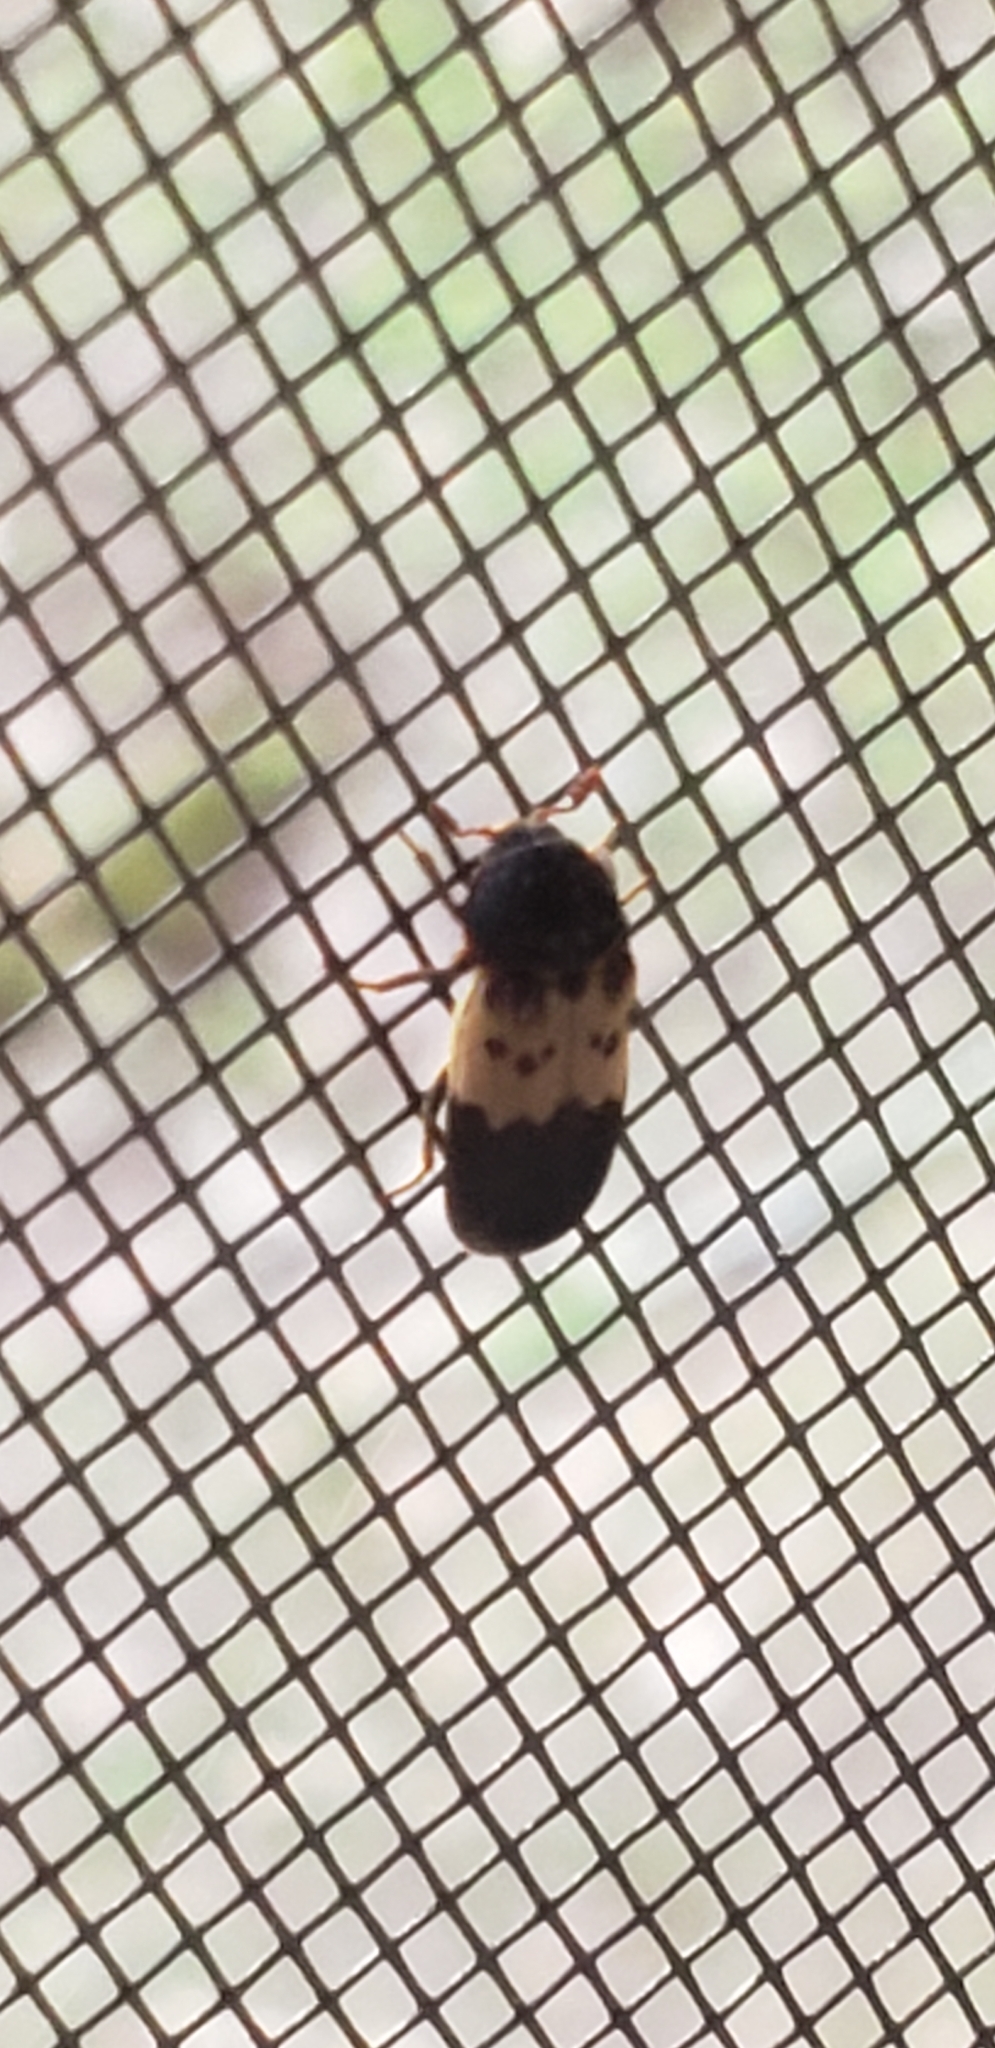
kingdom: Animalia
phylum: Arthropoda
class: Insecta
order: Coleoptera
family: Dermestidae
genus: Dermestes
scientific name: Dermestes lardarius
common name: Larder beetle
